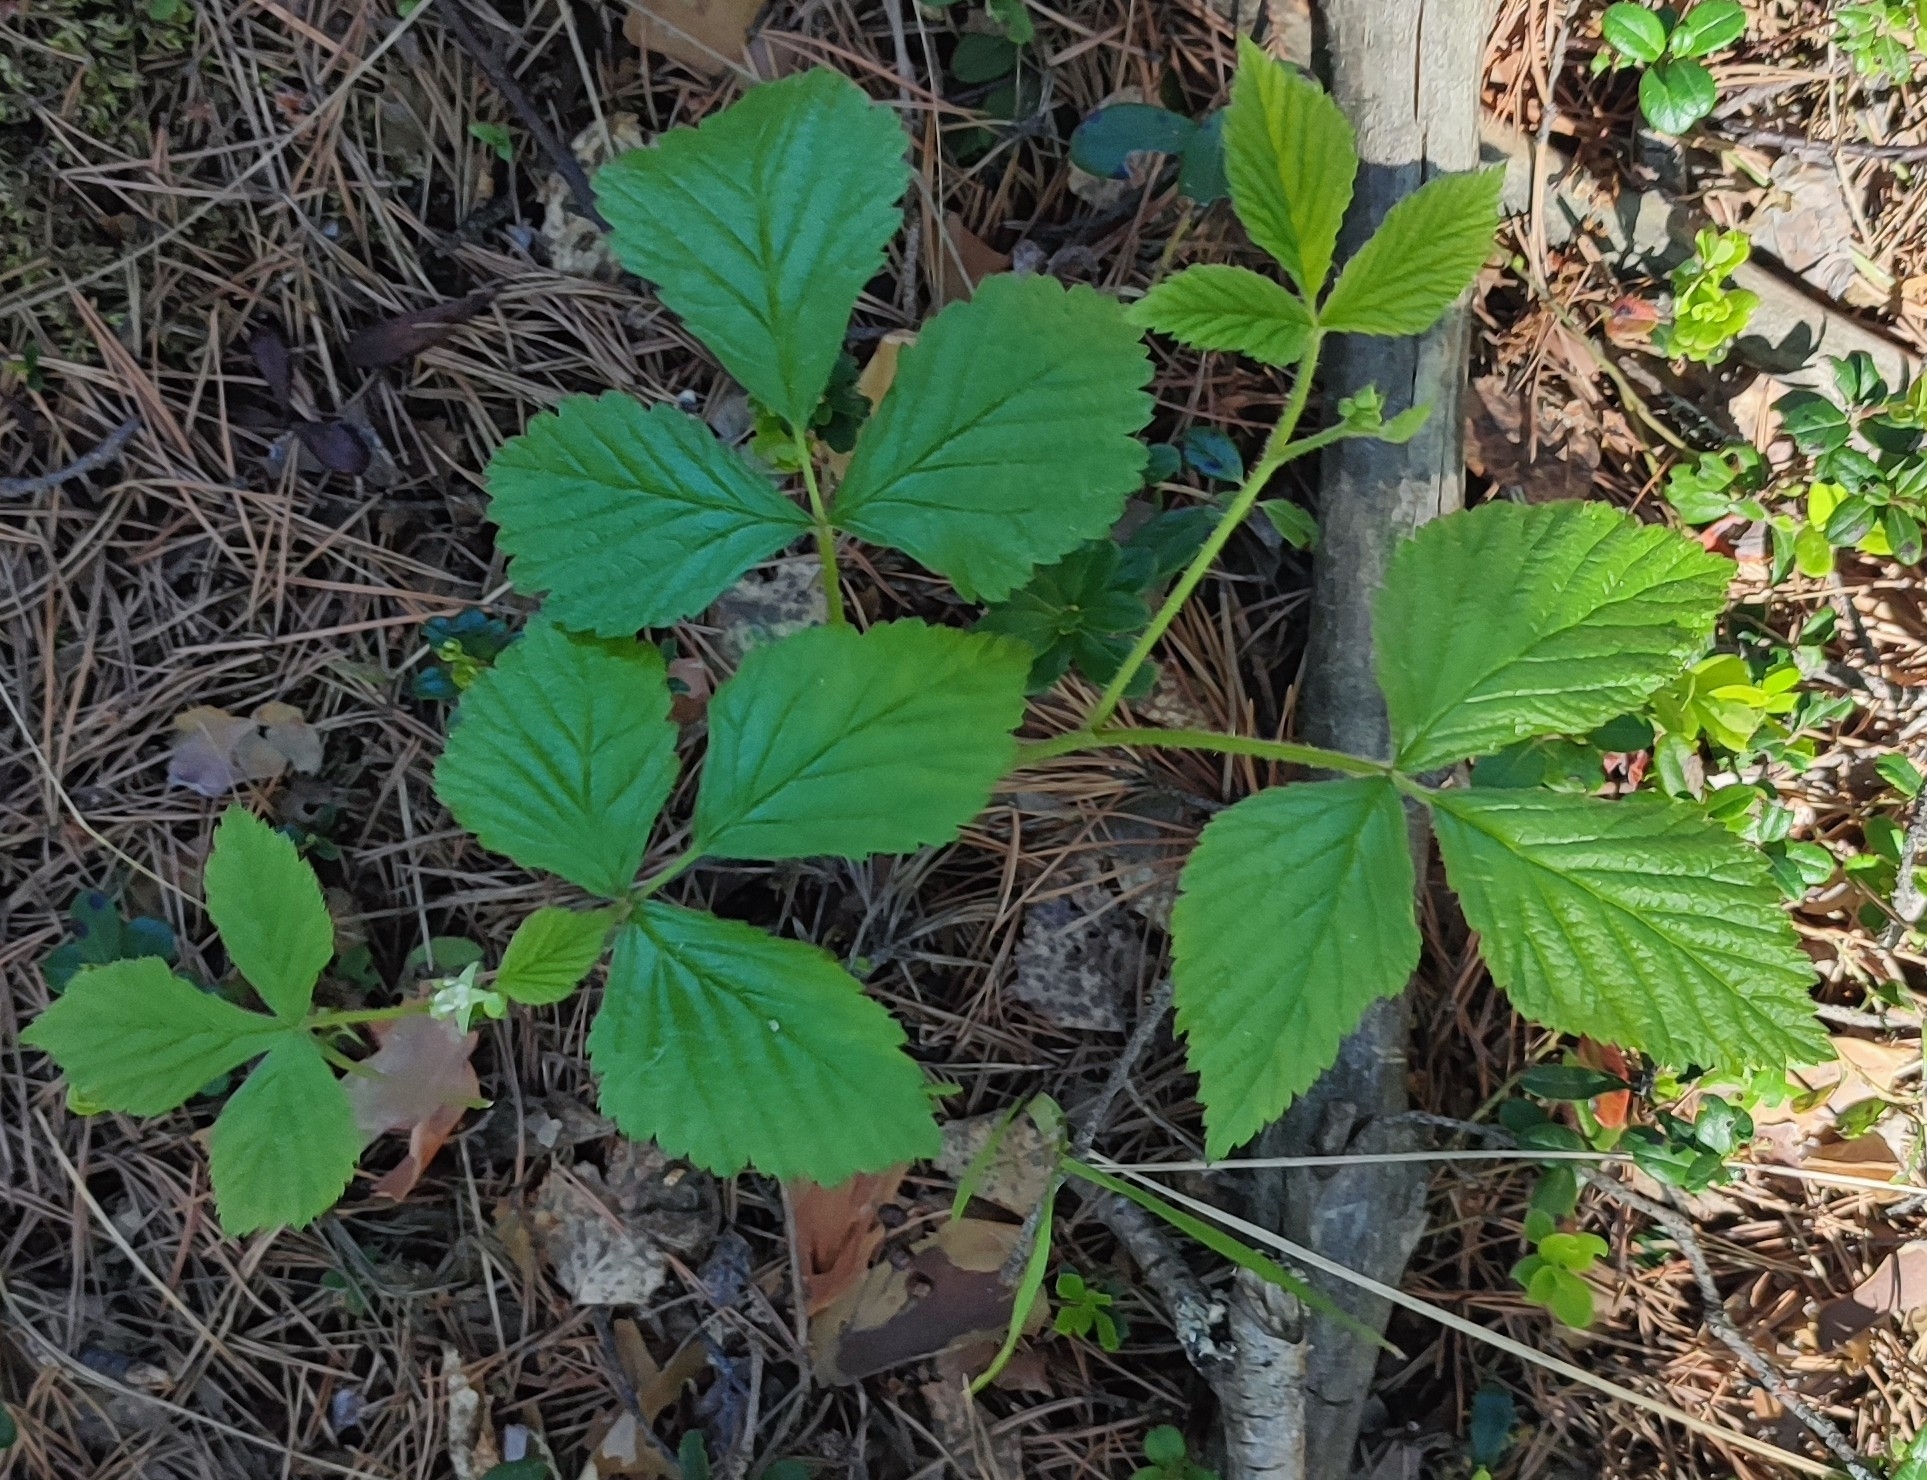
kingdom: Plantae
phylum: Tracheophyta
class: Magnoliopsida
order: Rosales
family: Rosaceae
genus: Rubus
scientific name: Rubus saxatilis
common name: Stone bramble
